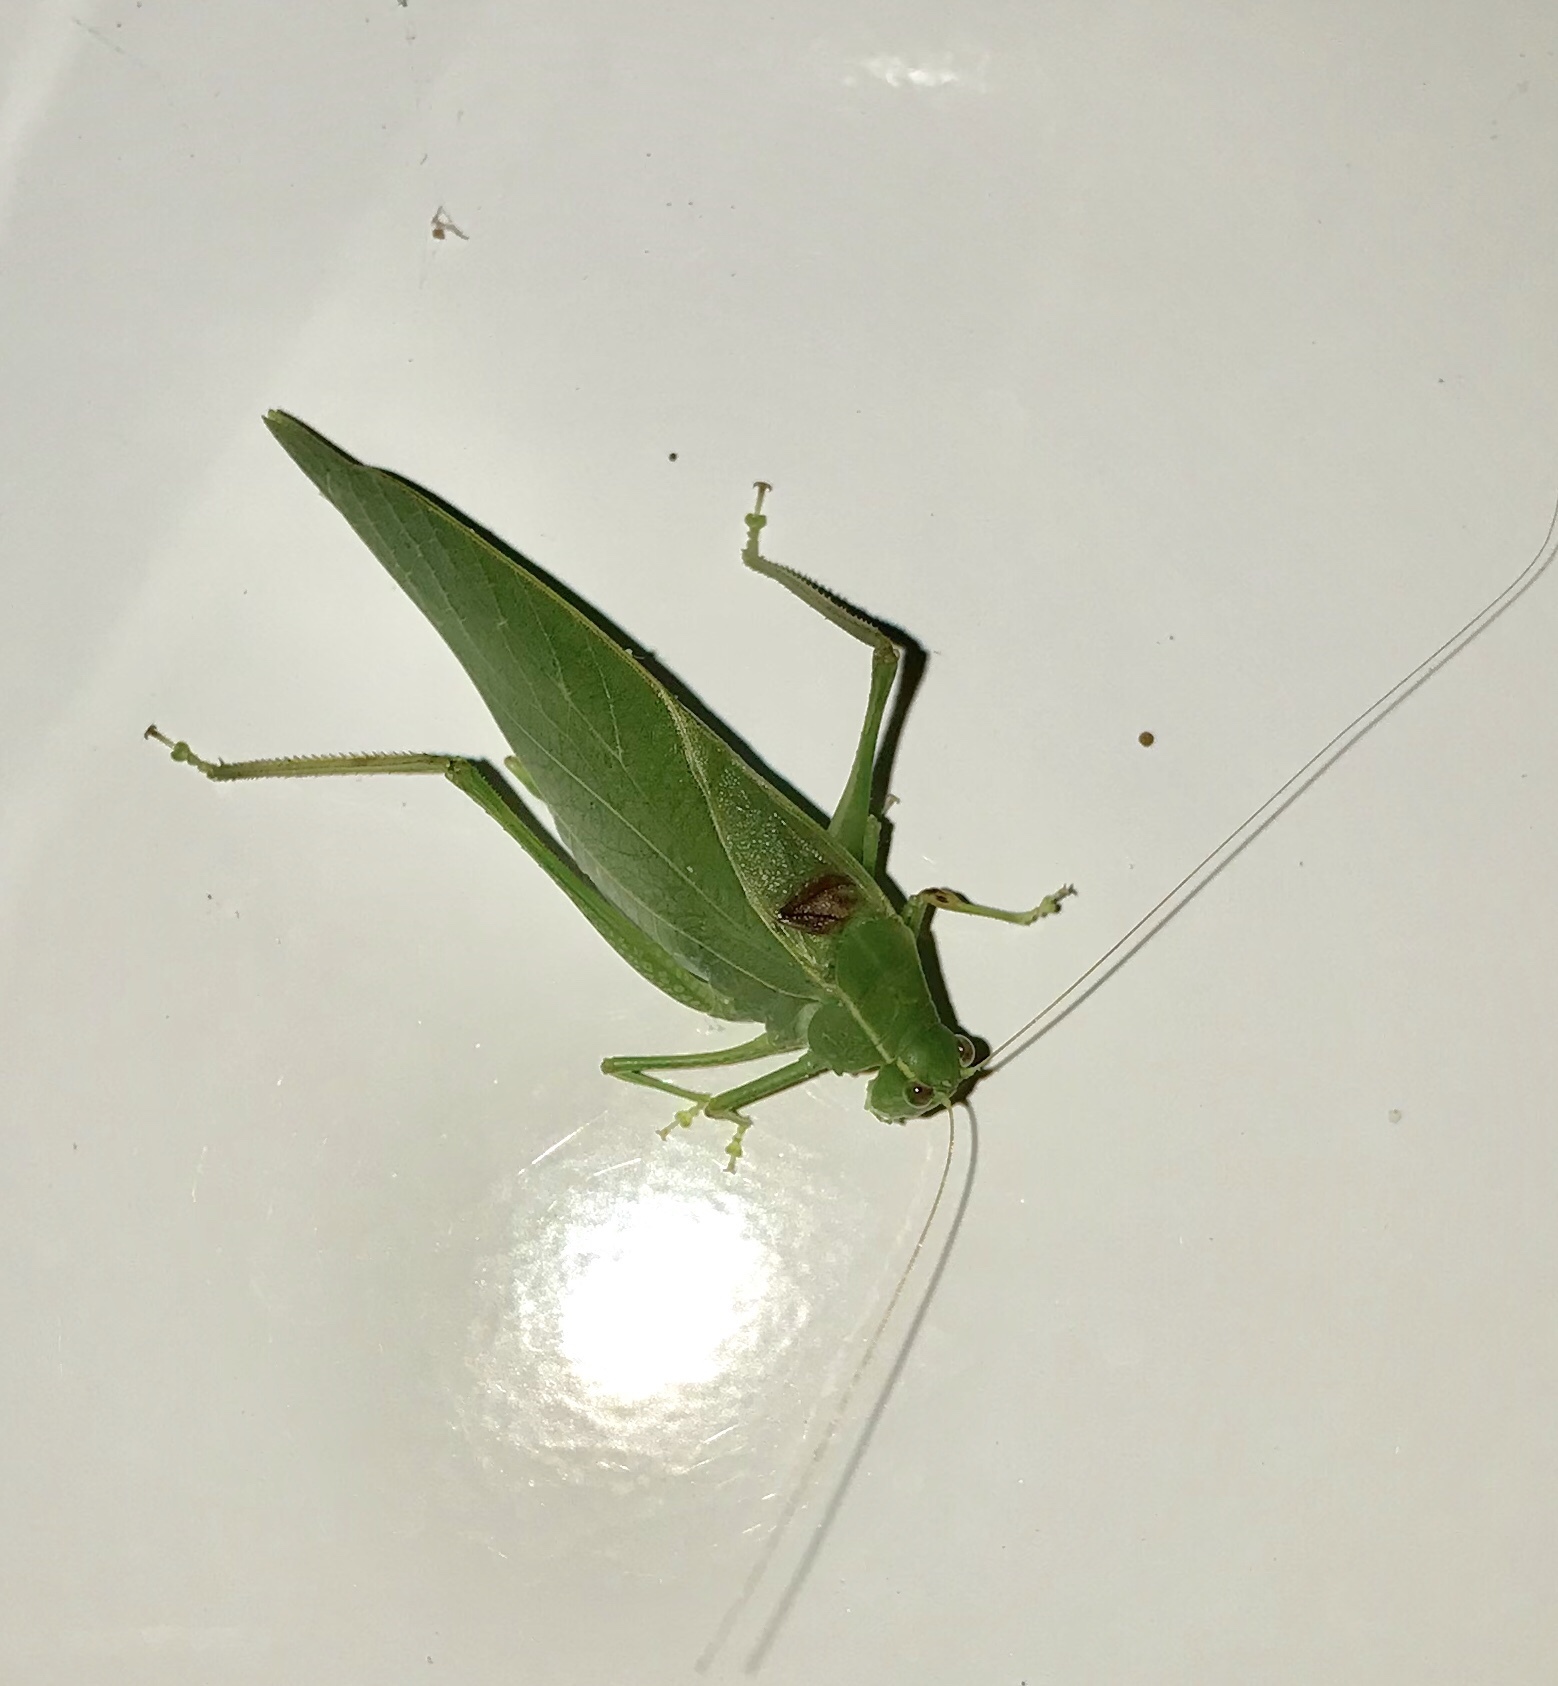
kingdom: Animalia
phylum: Arthropoda
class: Insecta
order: Orthoptera
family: Tettigoniidae
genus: Microcentrum
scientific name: Microcentrum retinerve
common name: Angular-winged katydid
